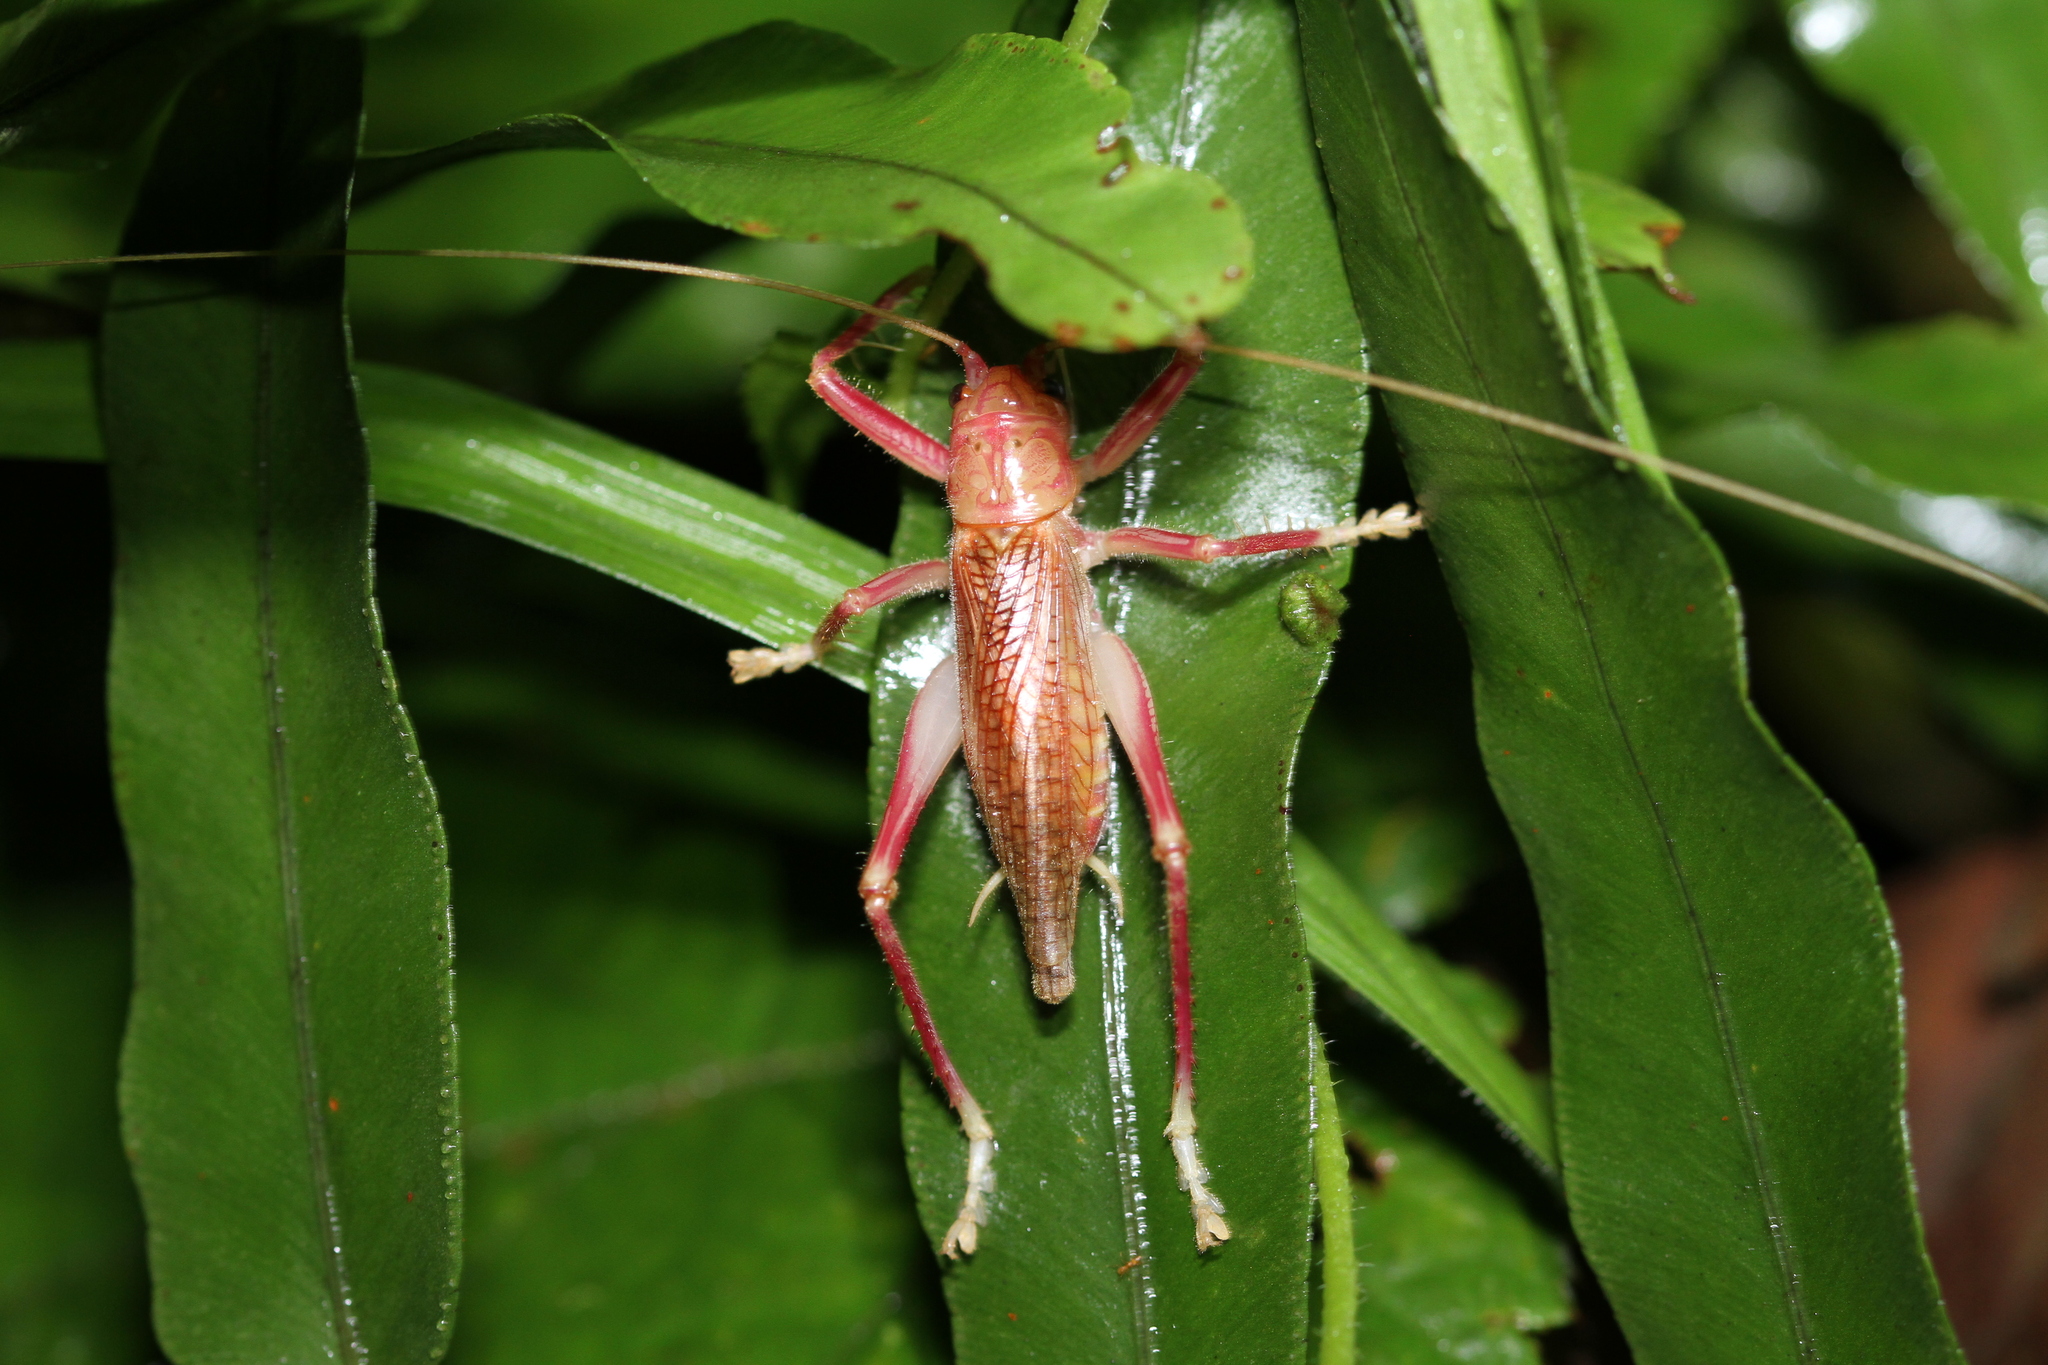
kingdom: Animalia
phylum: Arthropoda
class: Insecta
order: Orthoptera
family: Gryllacrididae
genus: Prosopogryllacris
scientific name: Prosopogryllacris personata
